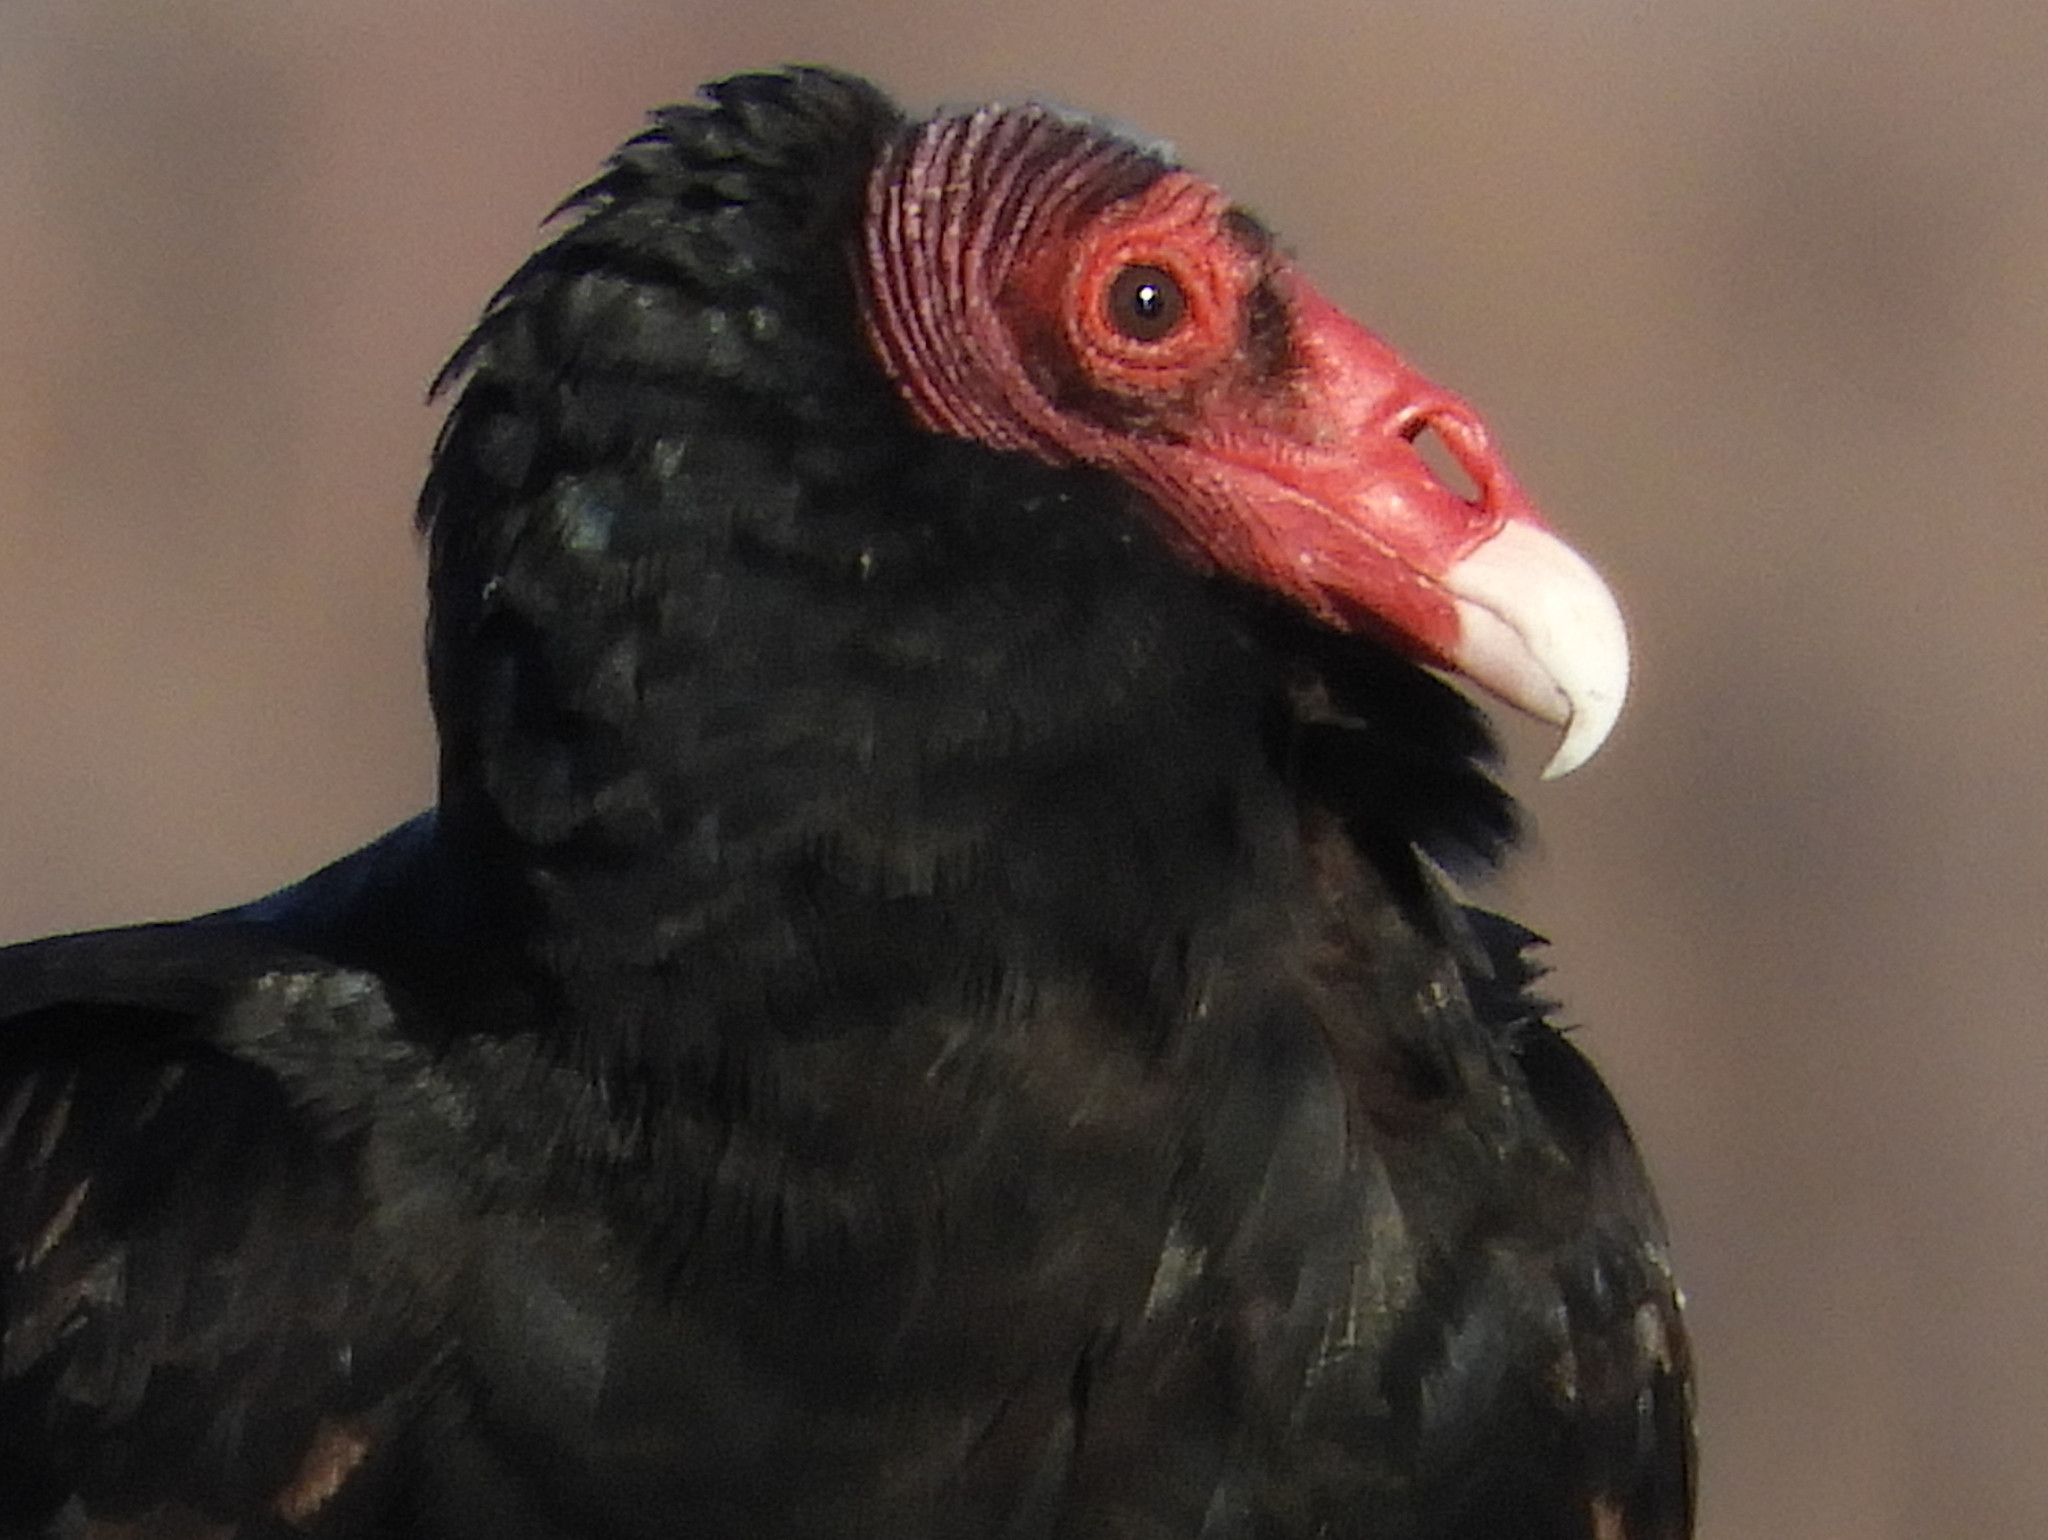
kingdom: Animalia
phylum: Chordata
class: Aves
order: Accipitriformes
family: Cathartidae
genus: Cathartes
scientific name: Cathartes aura
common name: Turkey vulture
